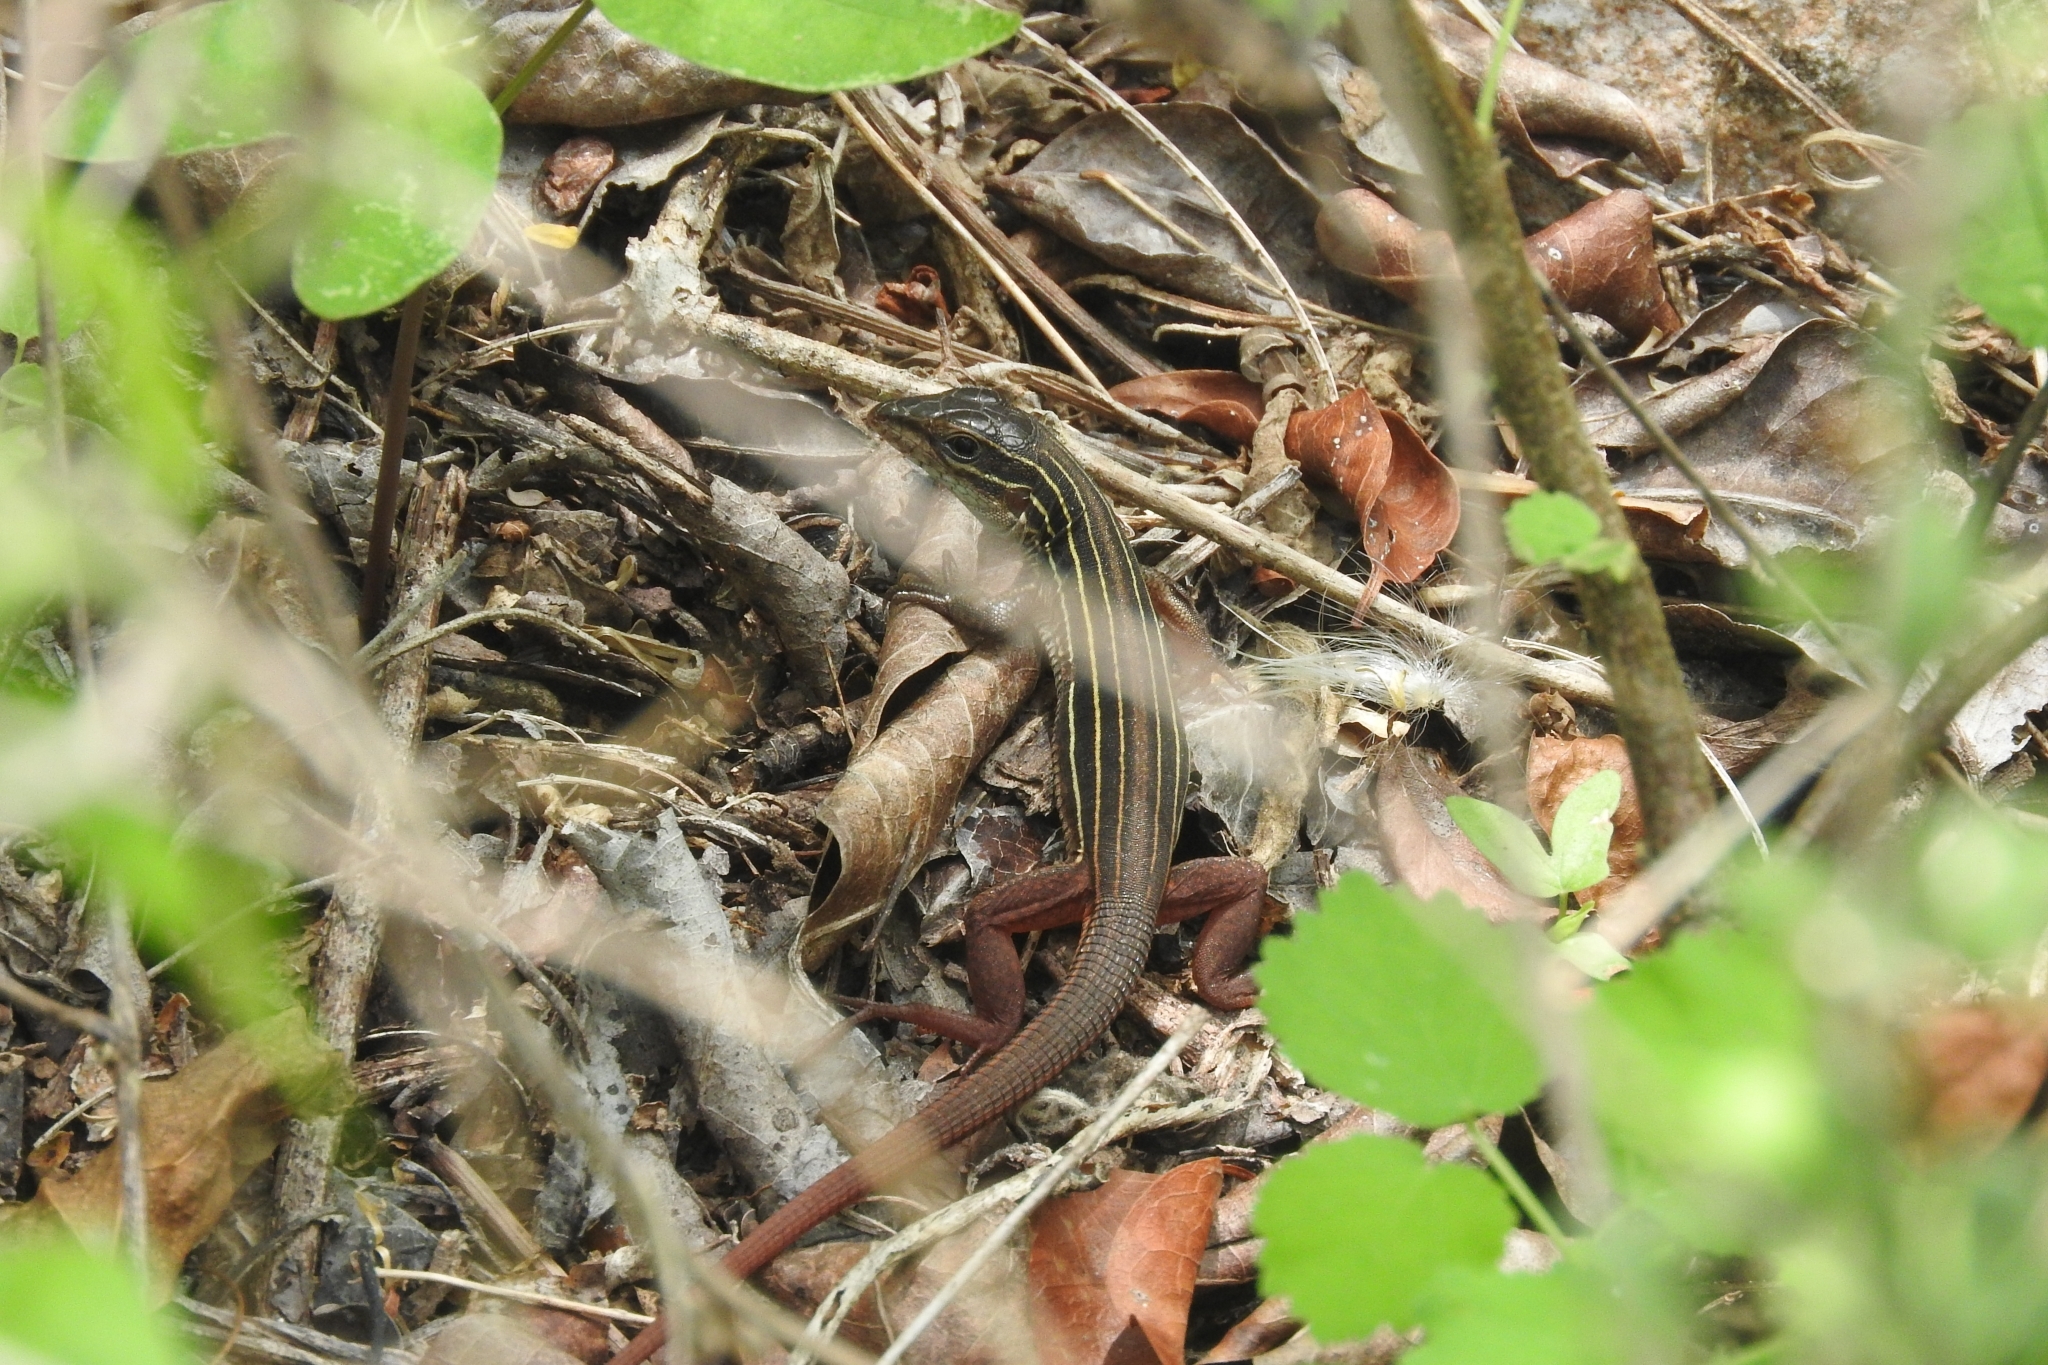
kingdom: Animalia
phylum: Chordata
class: Squamata
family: Teiidae
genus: Aspidoscelis
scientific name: Aspidoscelis angusticeps
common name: Yucatan whiptail
